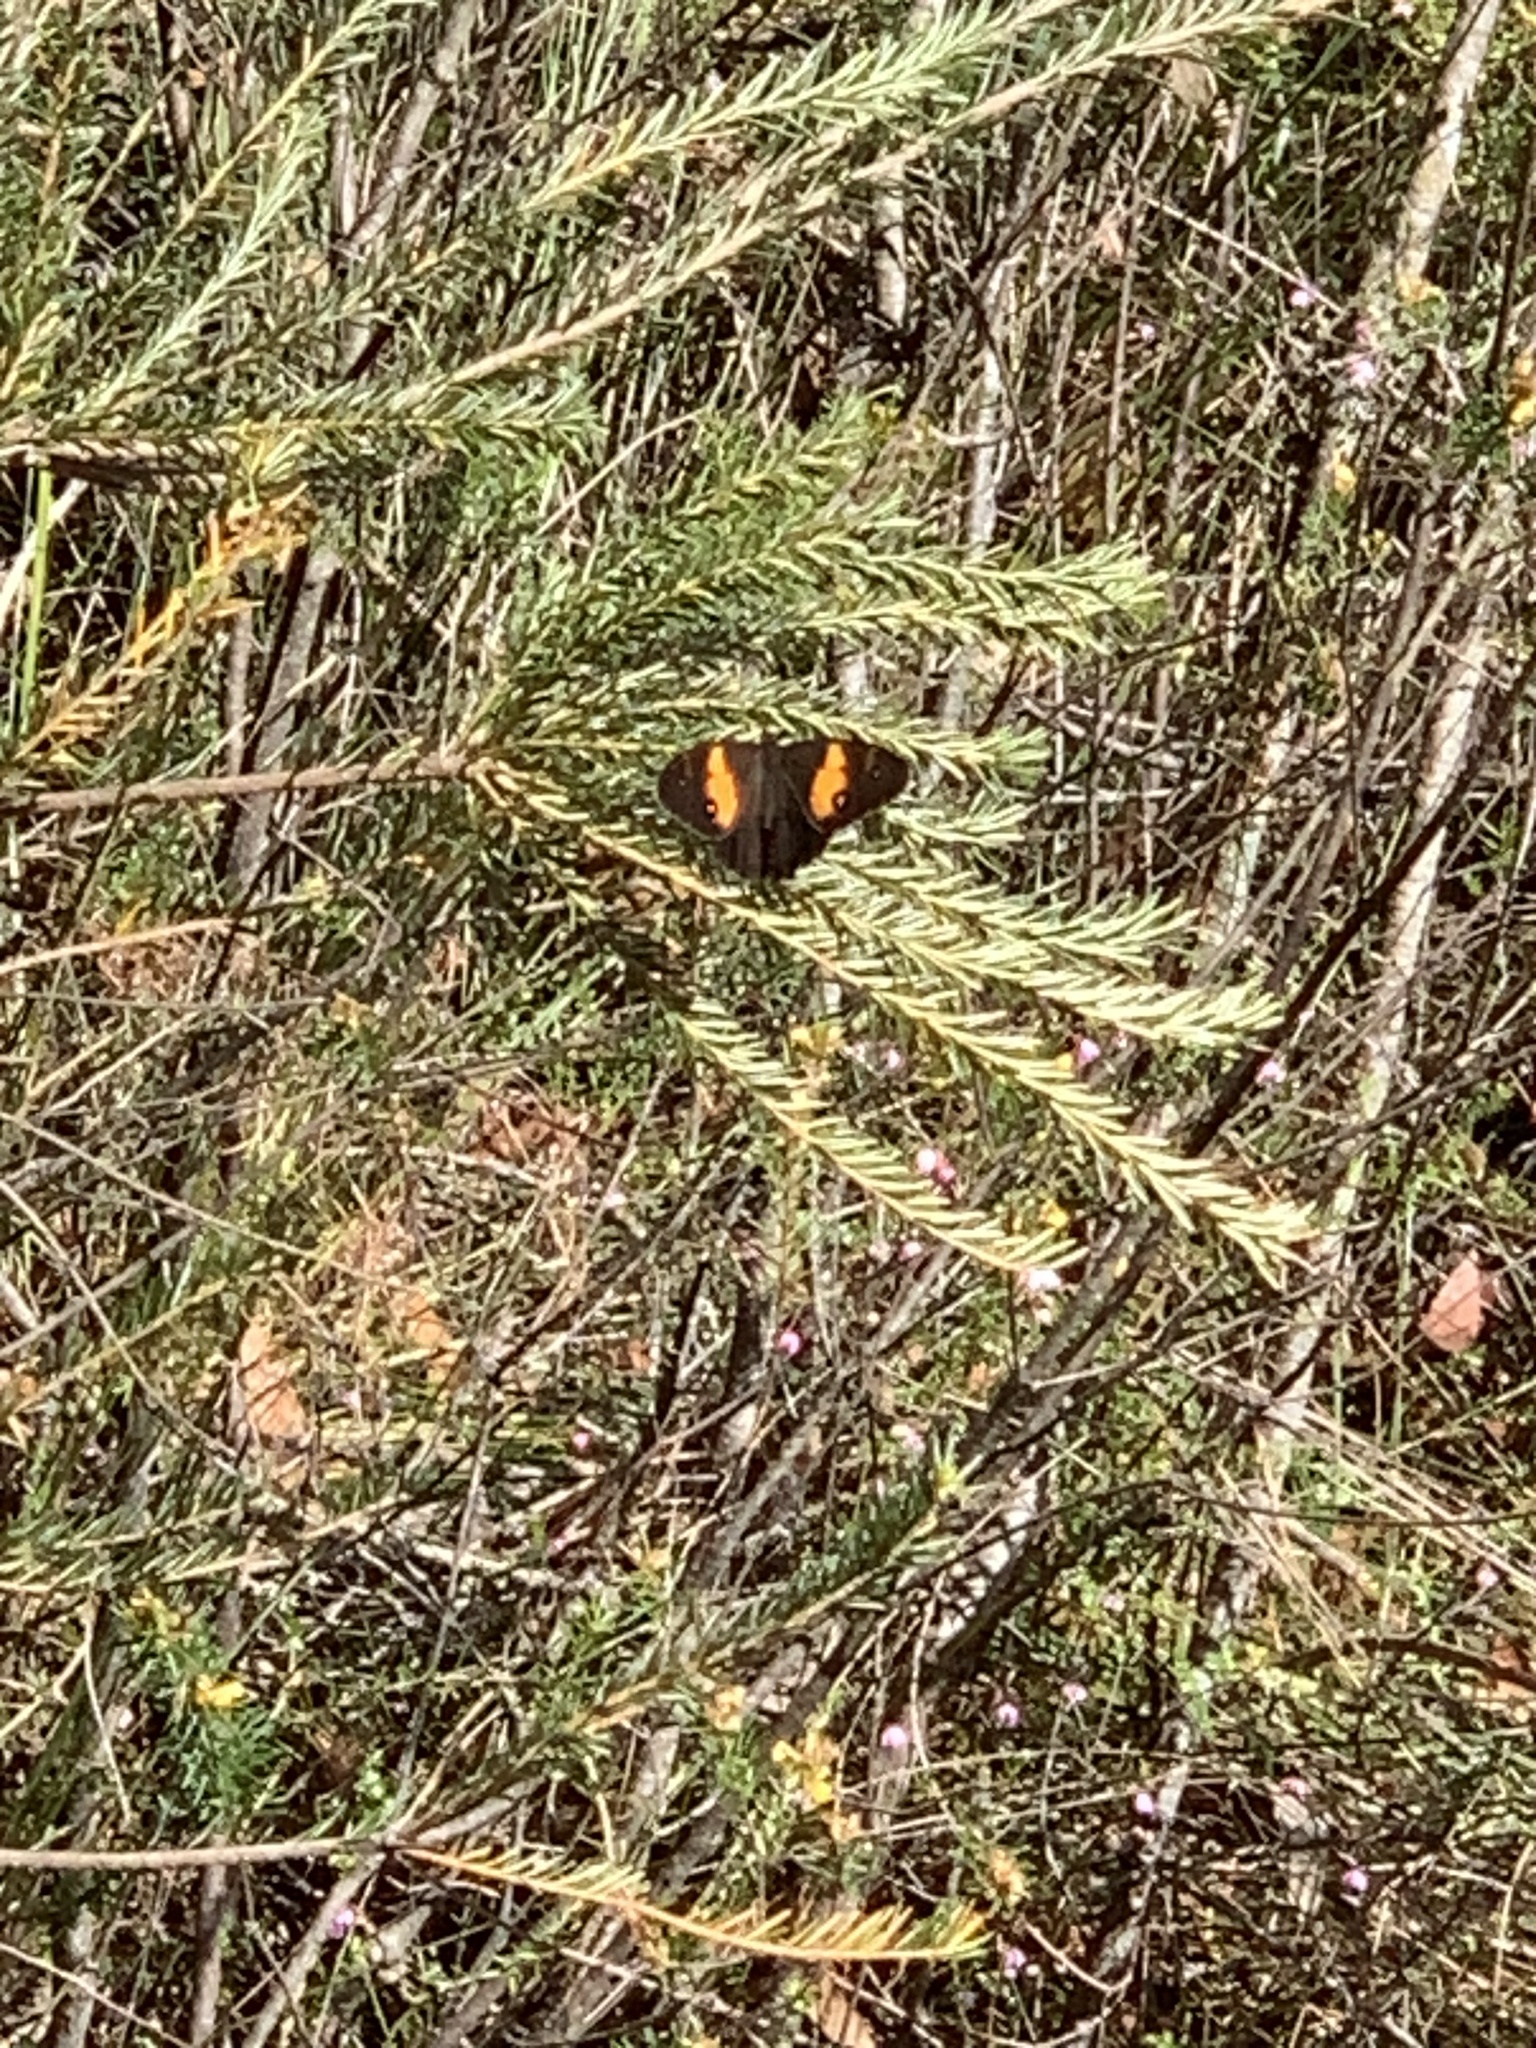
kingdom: Animalia
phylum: Arthropoda
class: Insecta
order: Lepidoptera
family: Nymphalidae
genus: Tisiphone
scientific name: Tisiphone abeona
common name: Swordgrass brown
